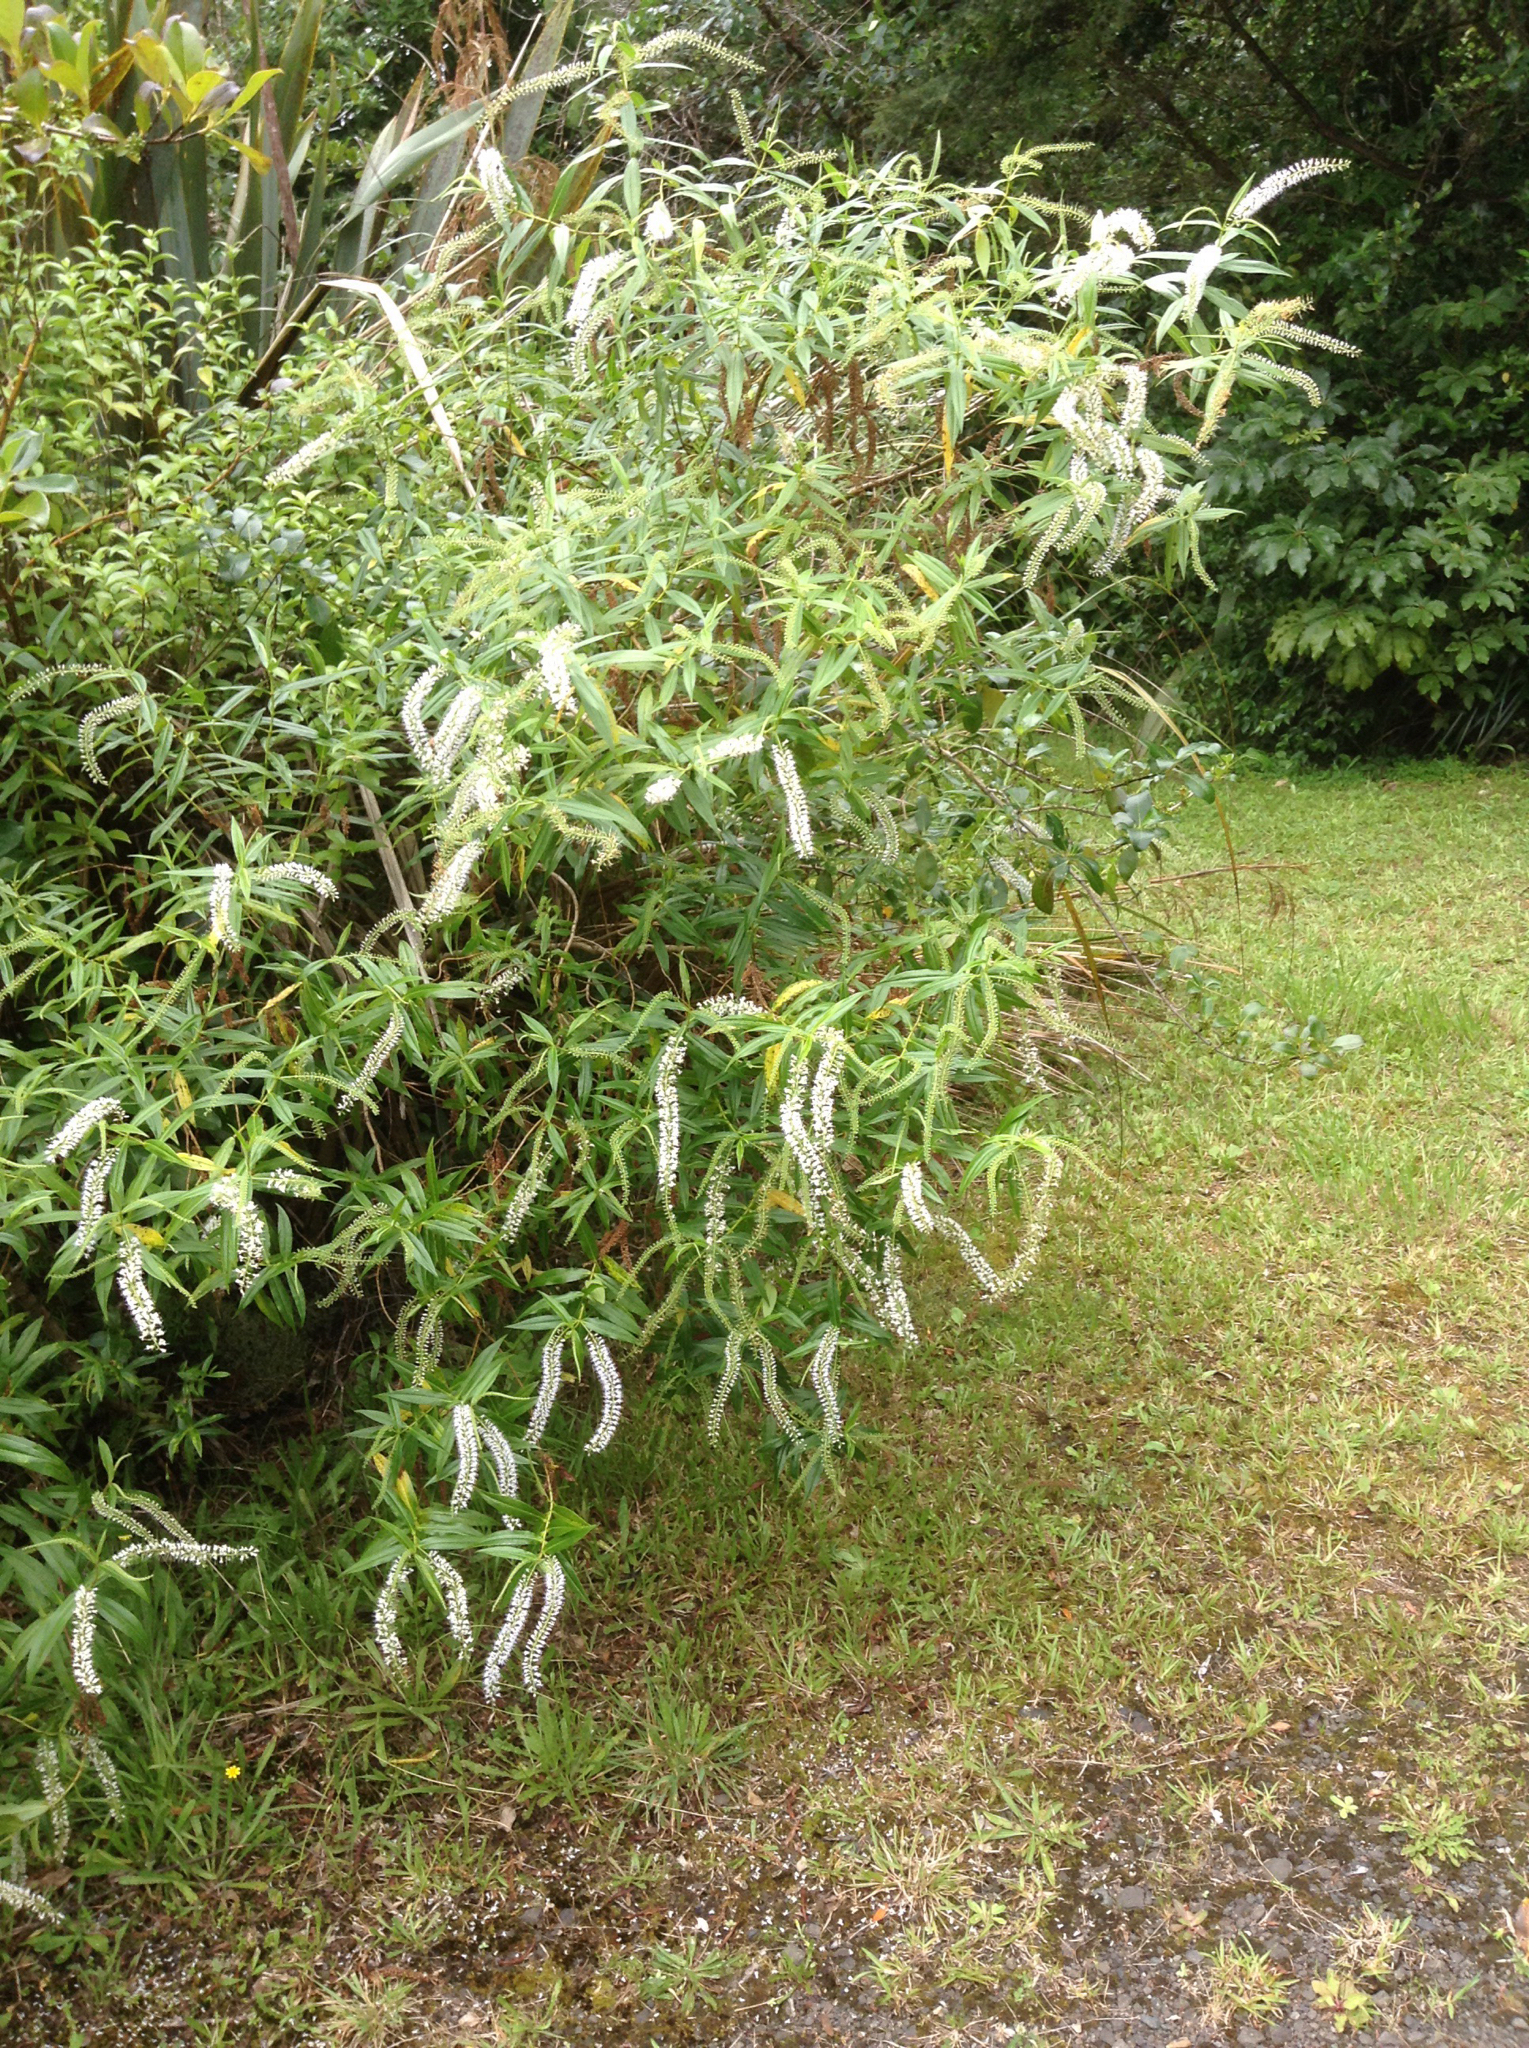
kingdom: Plantae
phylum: Tracheophyta
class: Magnoliopsida
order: Lamiales
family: Plantaginaceae
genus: Veronica
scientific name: Veronica stricta
